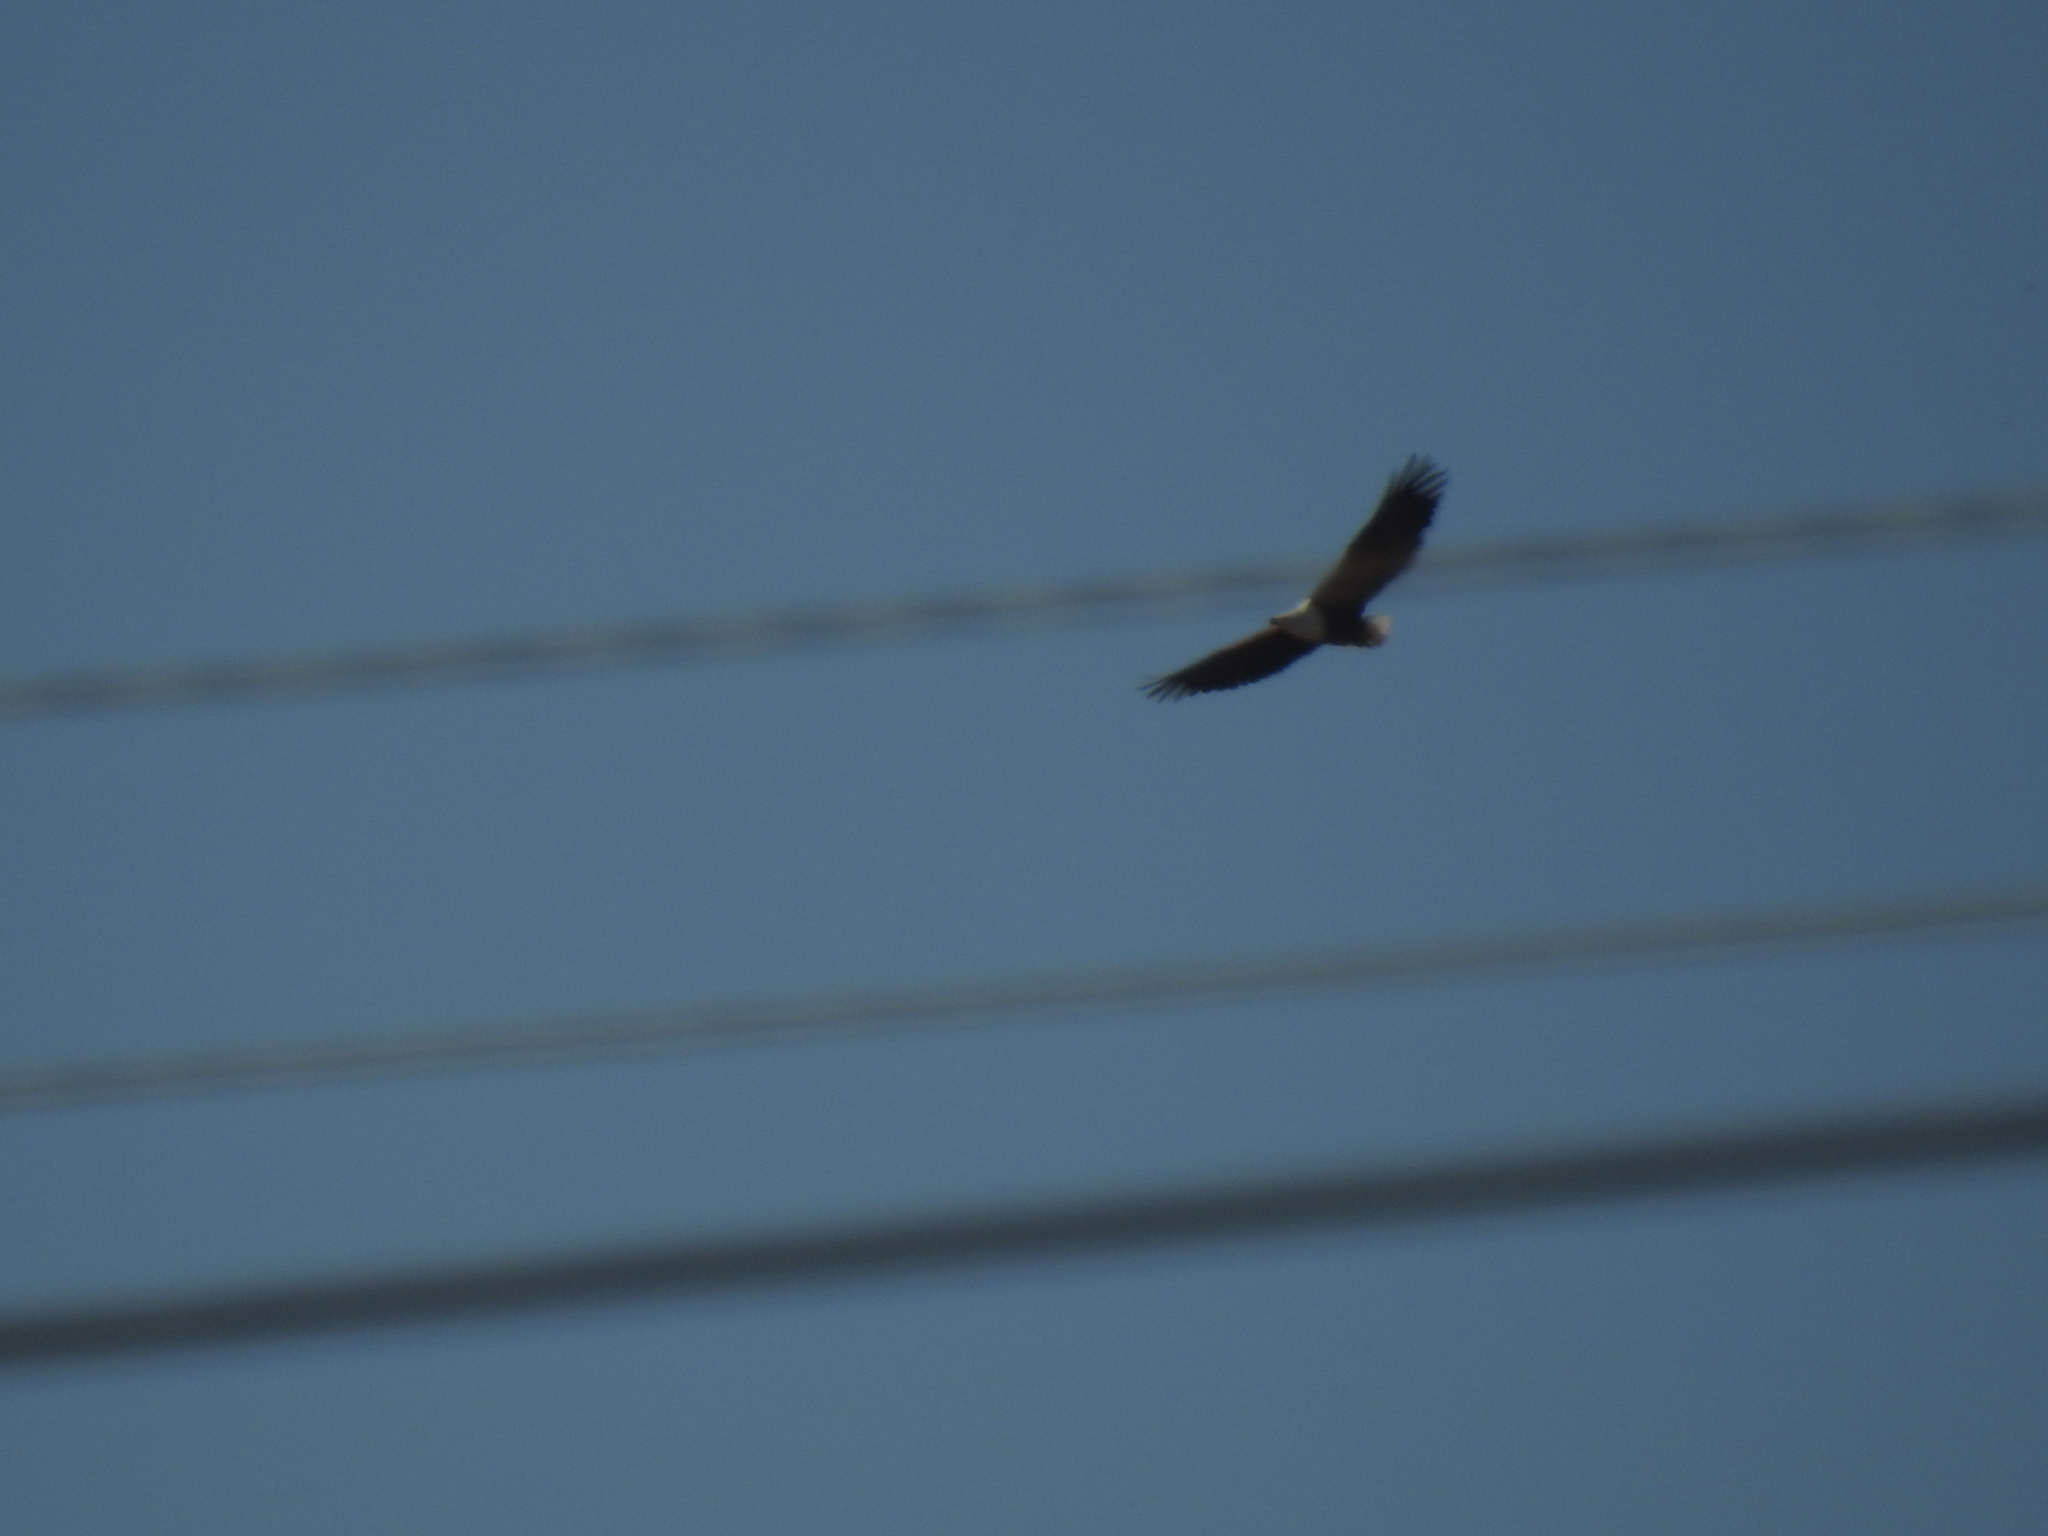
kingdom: Animalia
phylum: Chordata
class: Aves
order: Accipitriformes
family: Accipitridae
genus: Haliaeetus
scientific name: Haliaeetus vocifer
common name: African fish eagle
